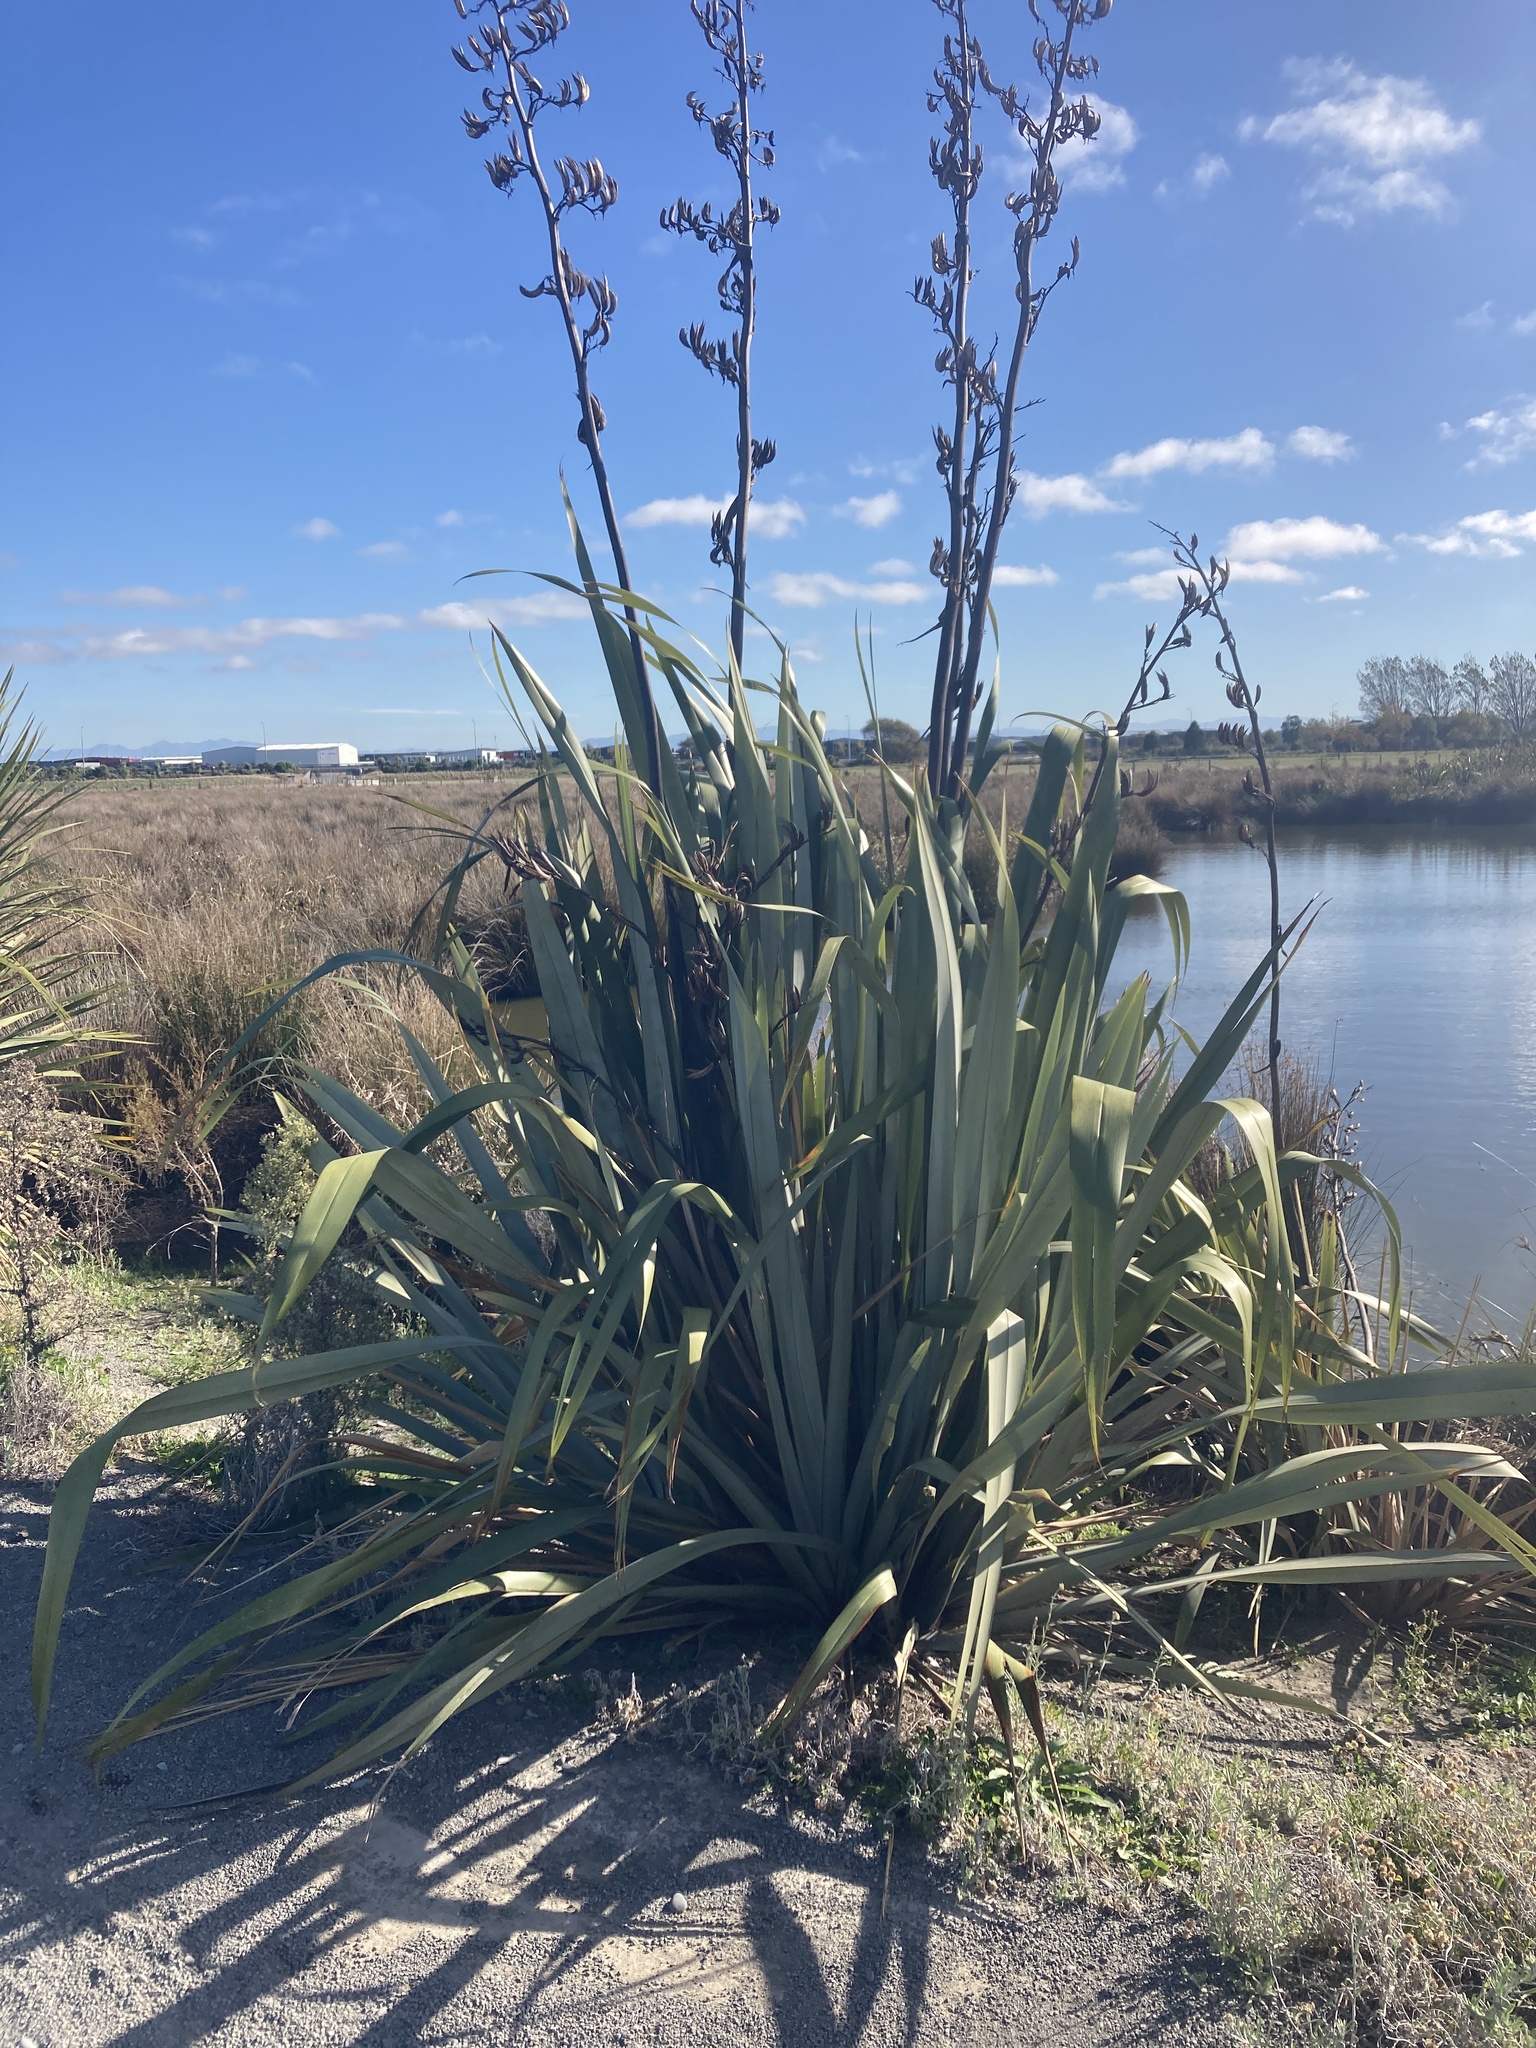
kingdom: Plantae
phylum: Tracheophyta
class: Liliopsida
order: Asparagales
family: Asphodelaceae
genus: Phormium
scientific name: Phormium tenax
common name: New zealand flax
